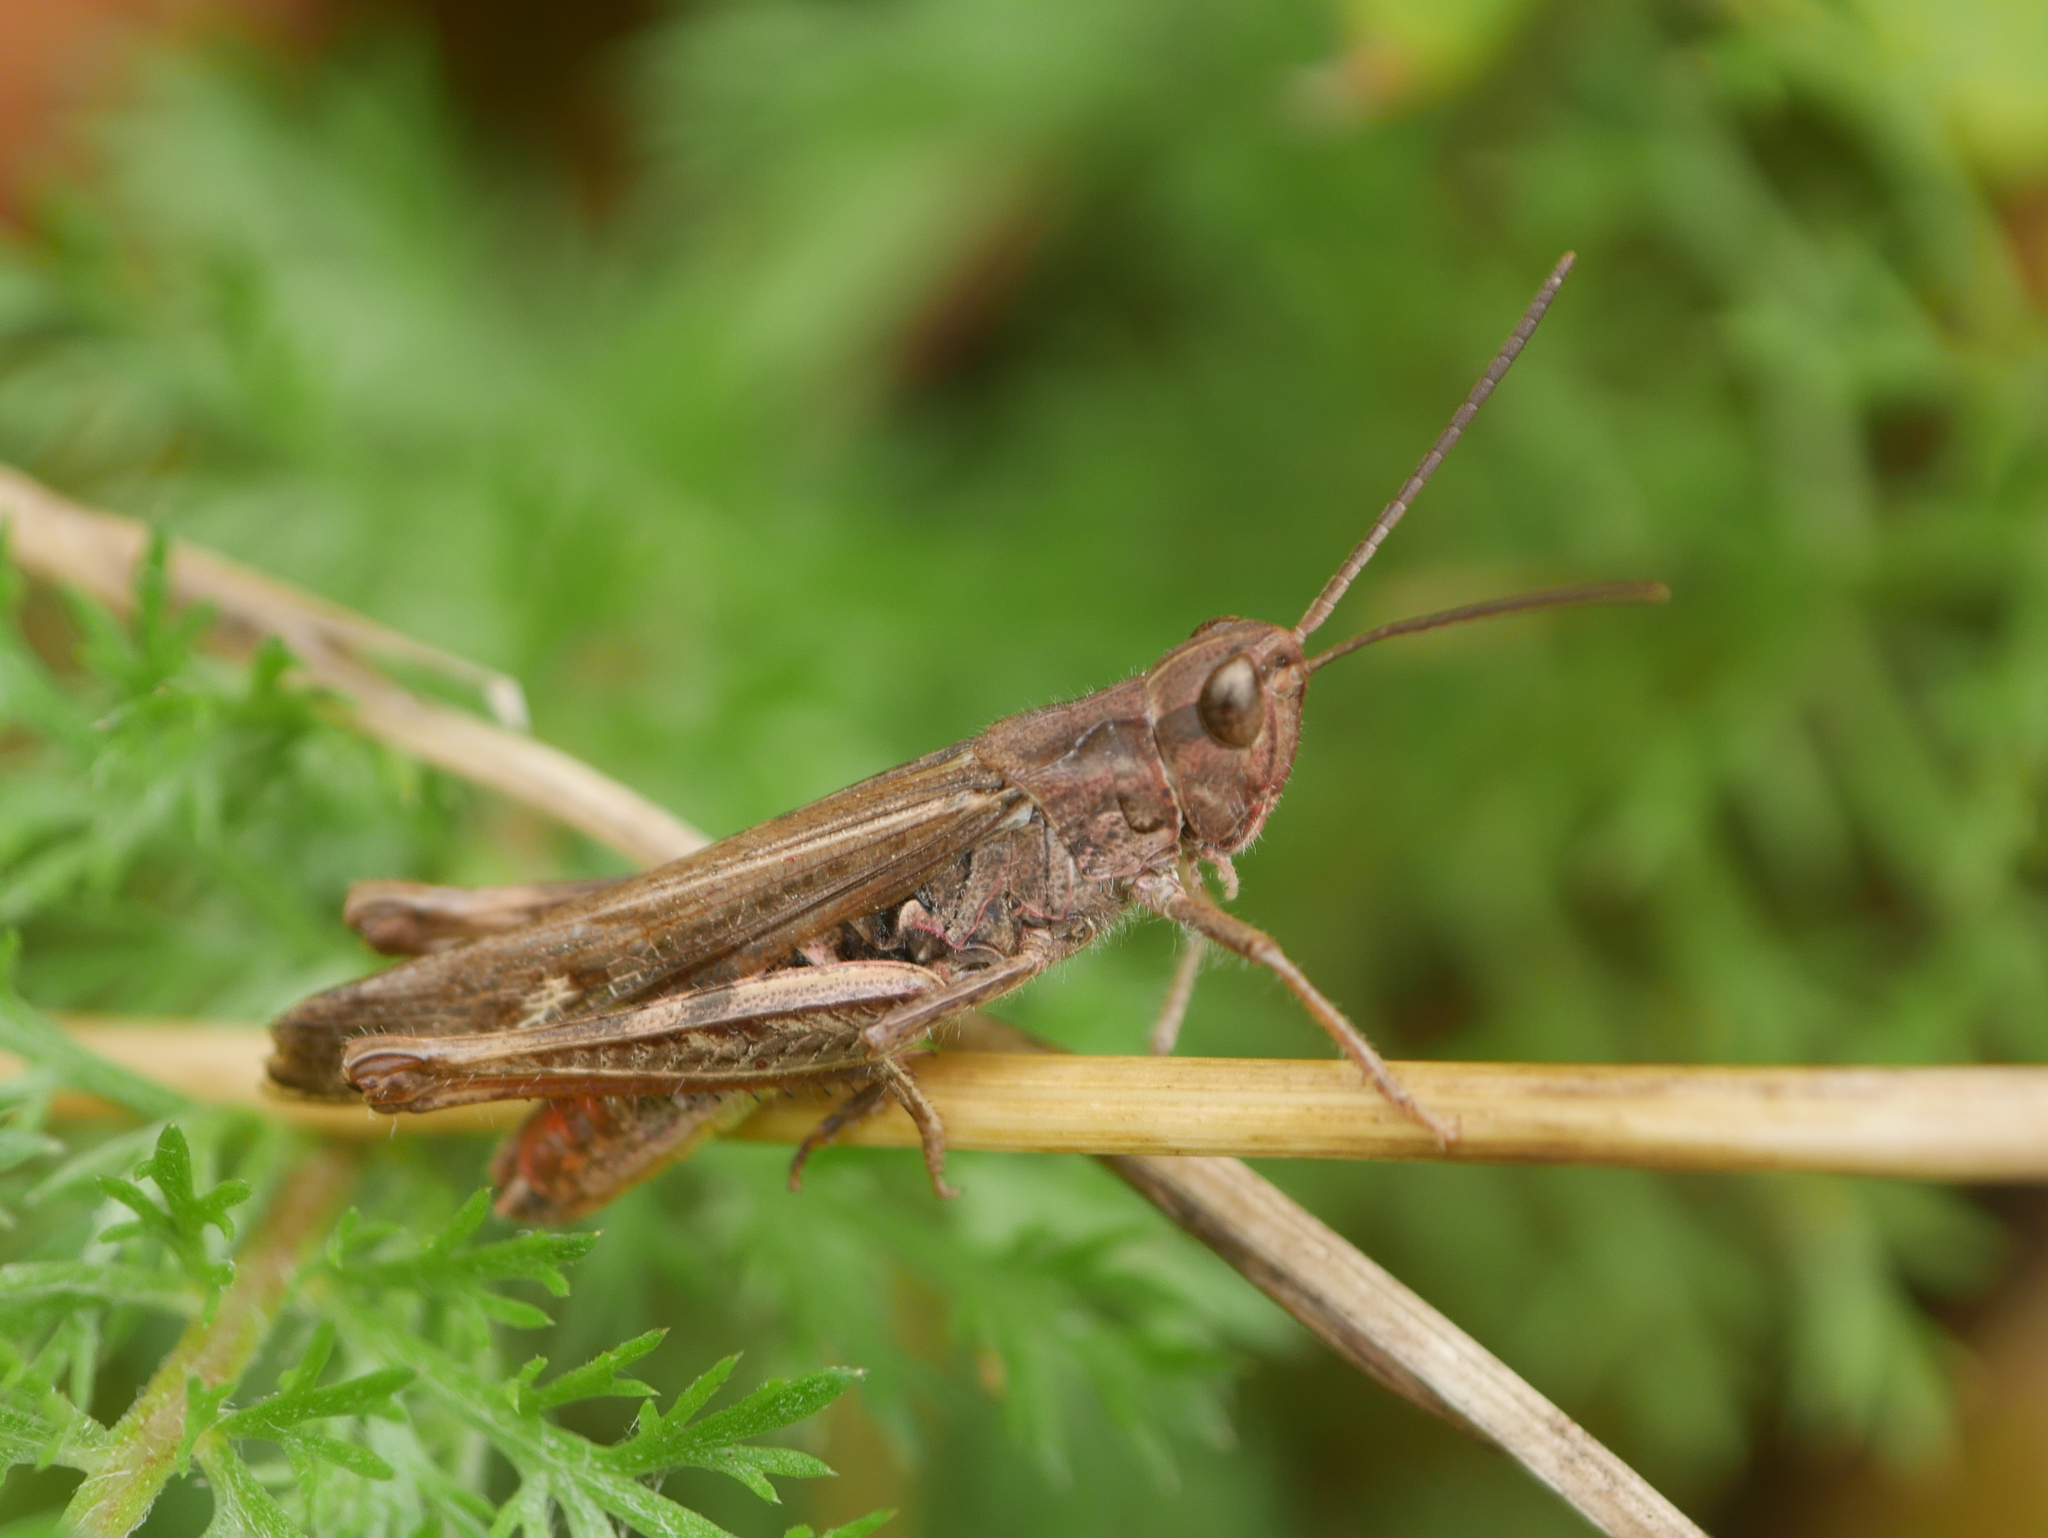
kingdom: Animalia
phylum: Arthropoda
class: Insecta
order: Orthoptera
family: Acrididae
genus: Chorthippus
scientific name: Chorthippus brunneus
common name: Field grasshopper
